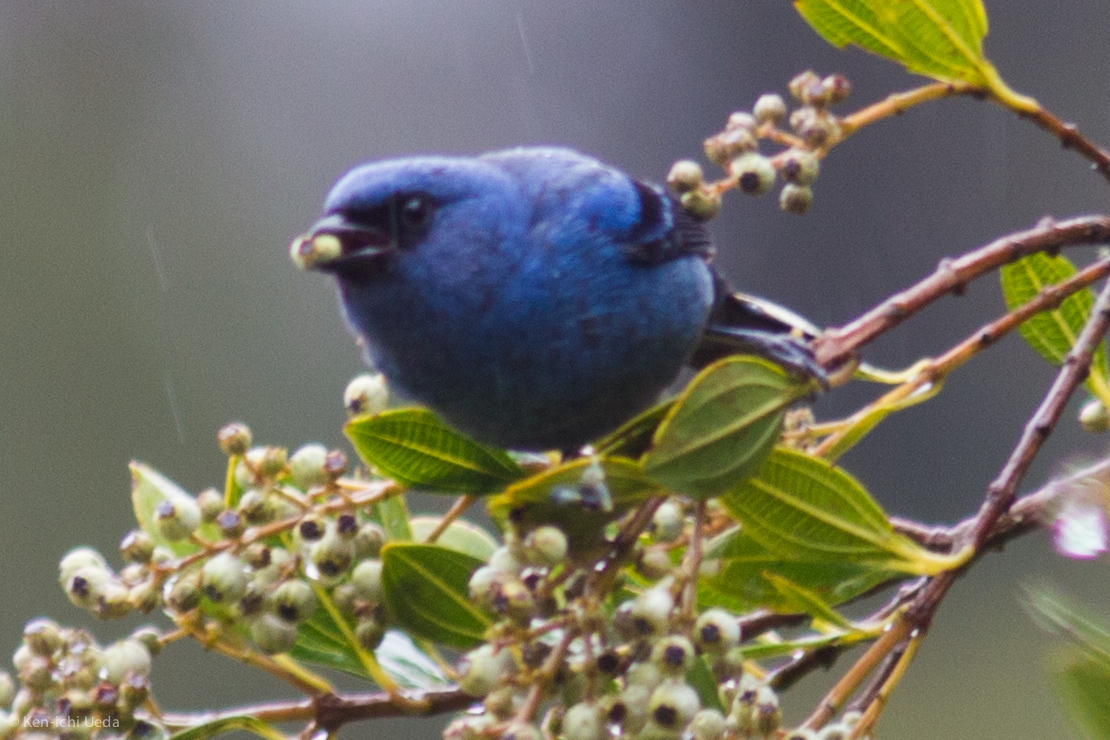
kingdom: Animalia
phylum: Chordata
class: Aves
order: Passeriformes
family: Thraupidae
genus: Tangara
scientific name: Tangara vassorii
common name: Blue-and-black tanager
